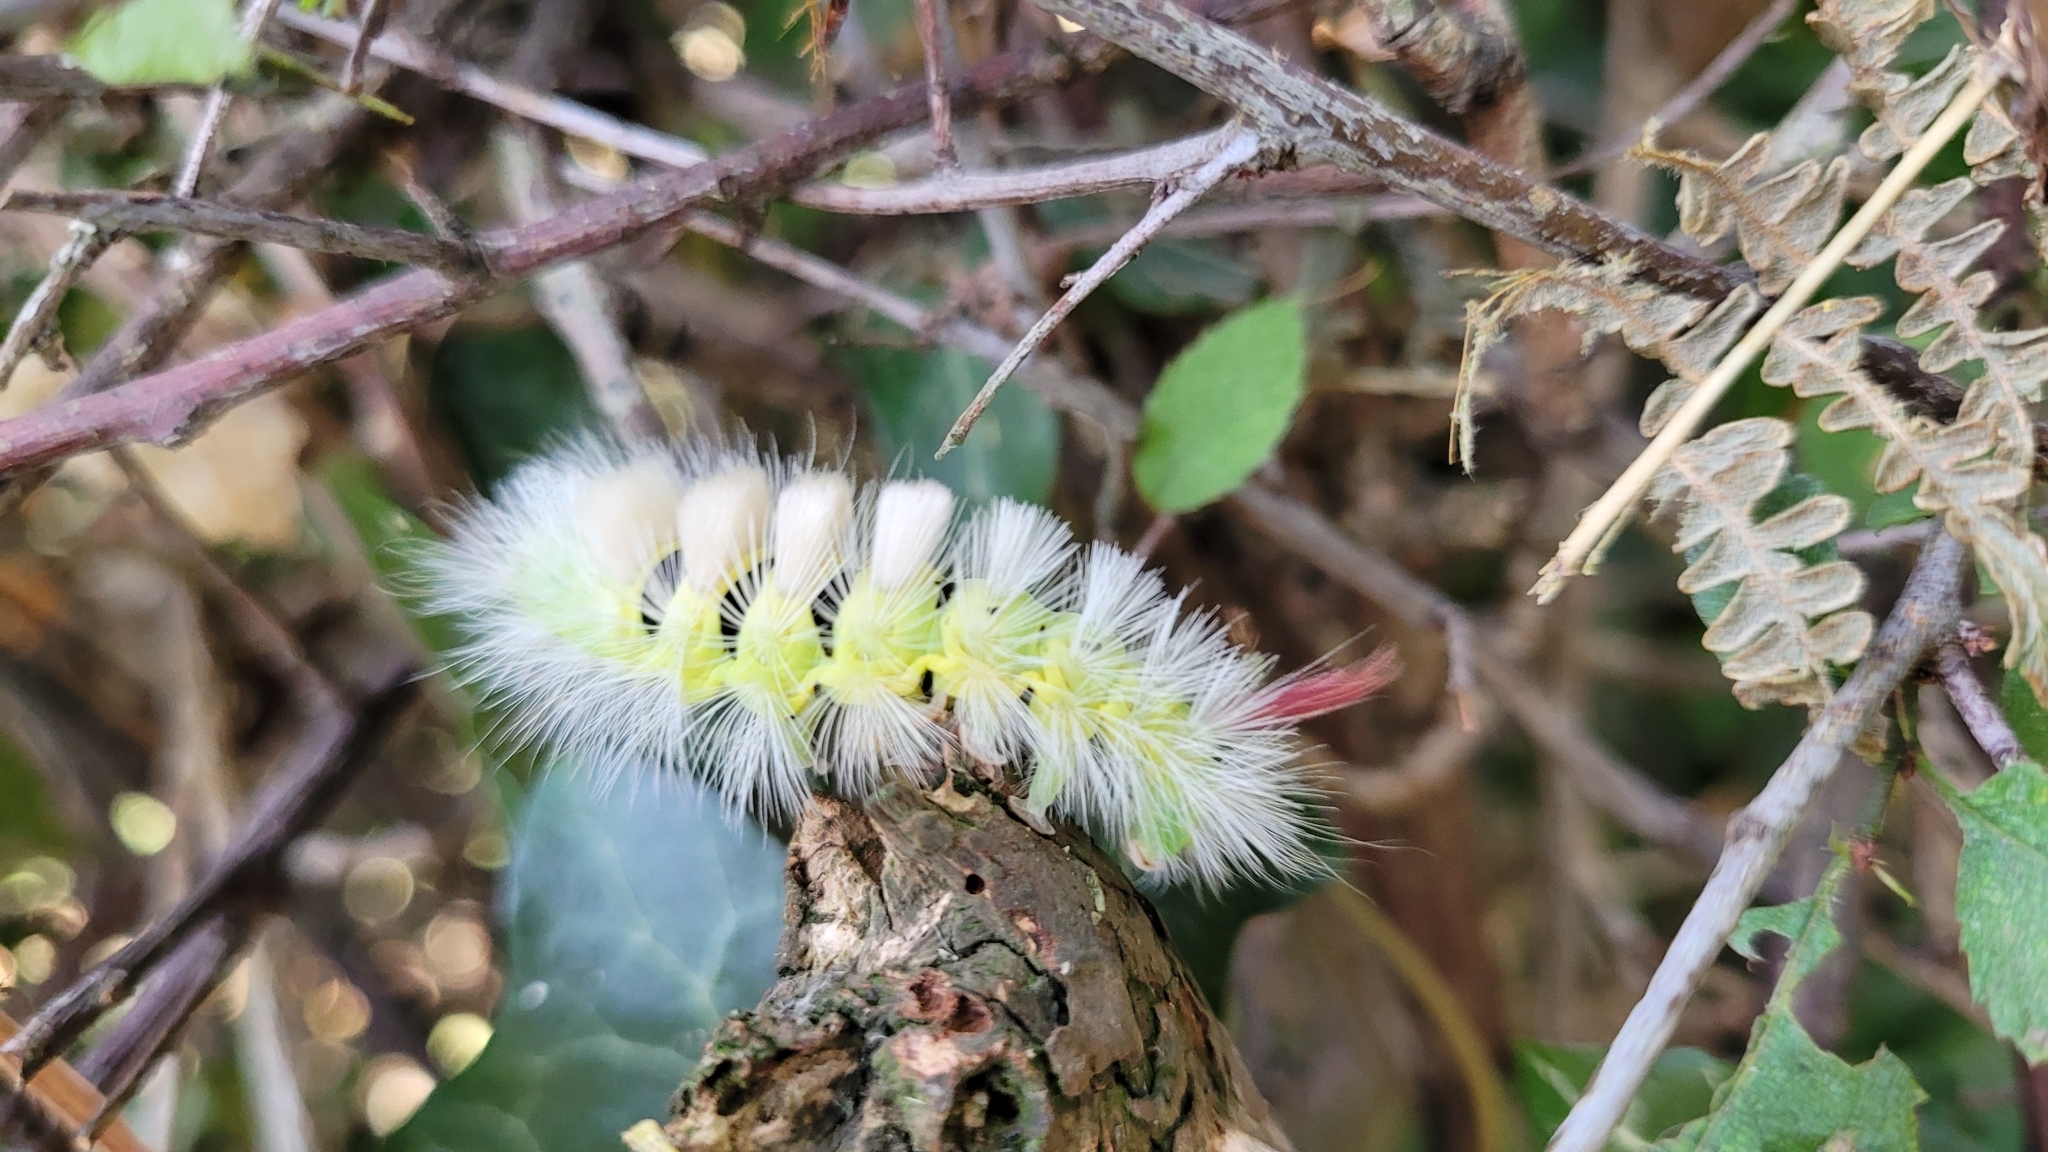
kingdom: Animalia
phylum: Arthropoda
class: Insecta
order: Lepidoptera
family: Erebidae
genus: Calliteara
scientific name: Calliteara pudibunda
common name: Pale tussock
